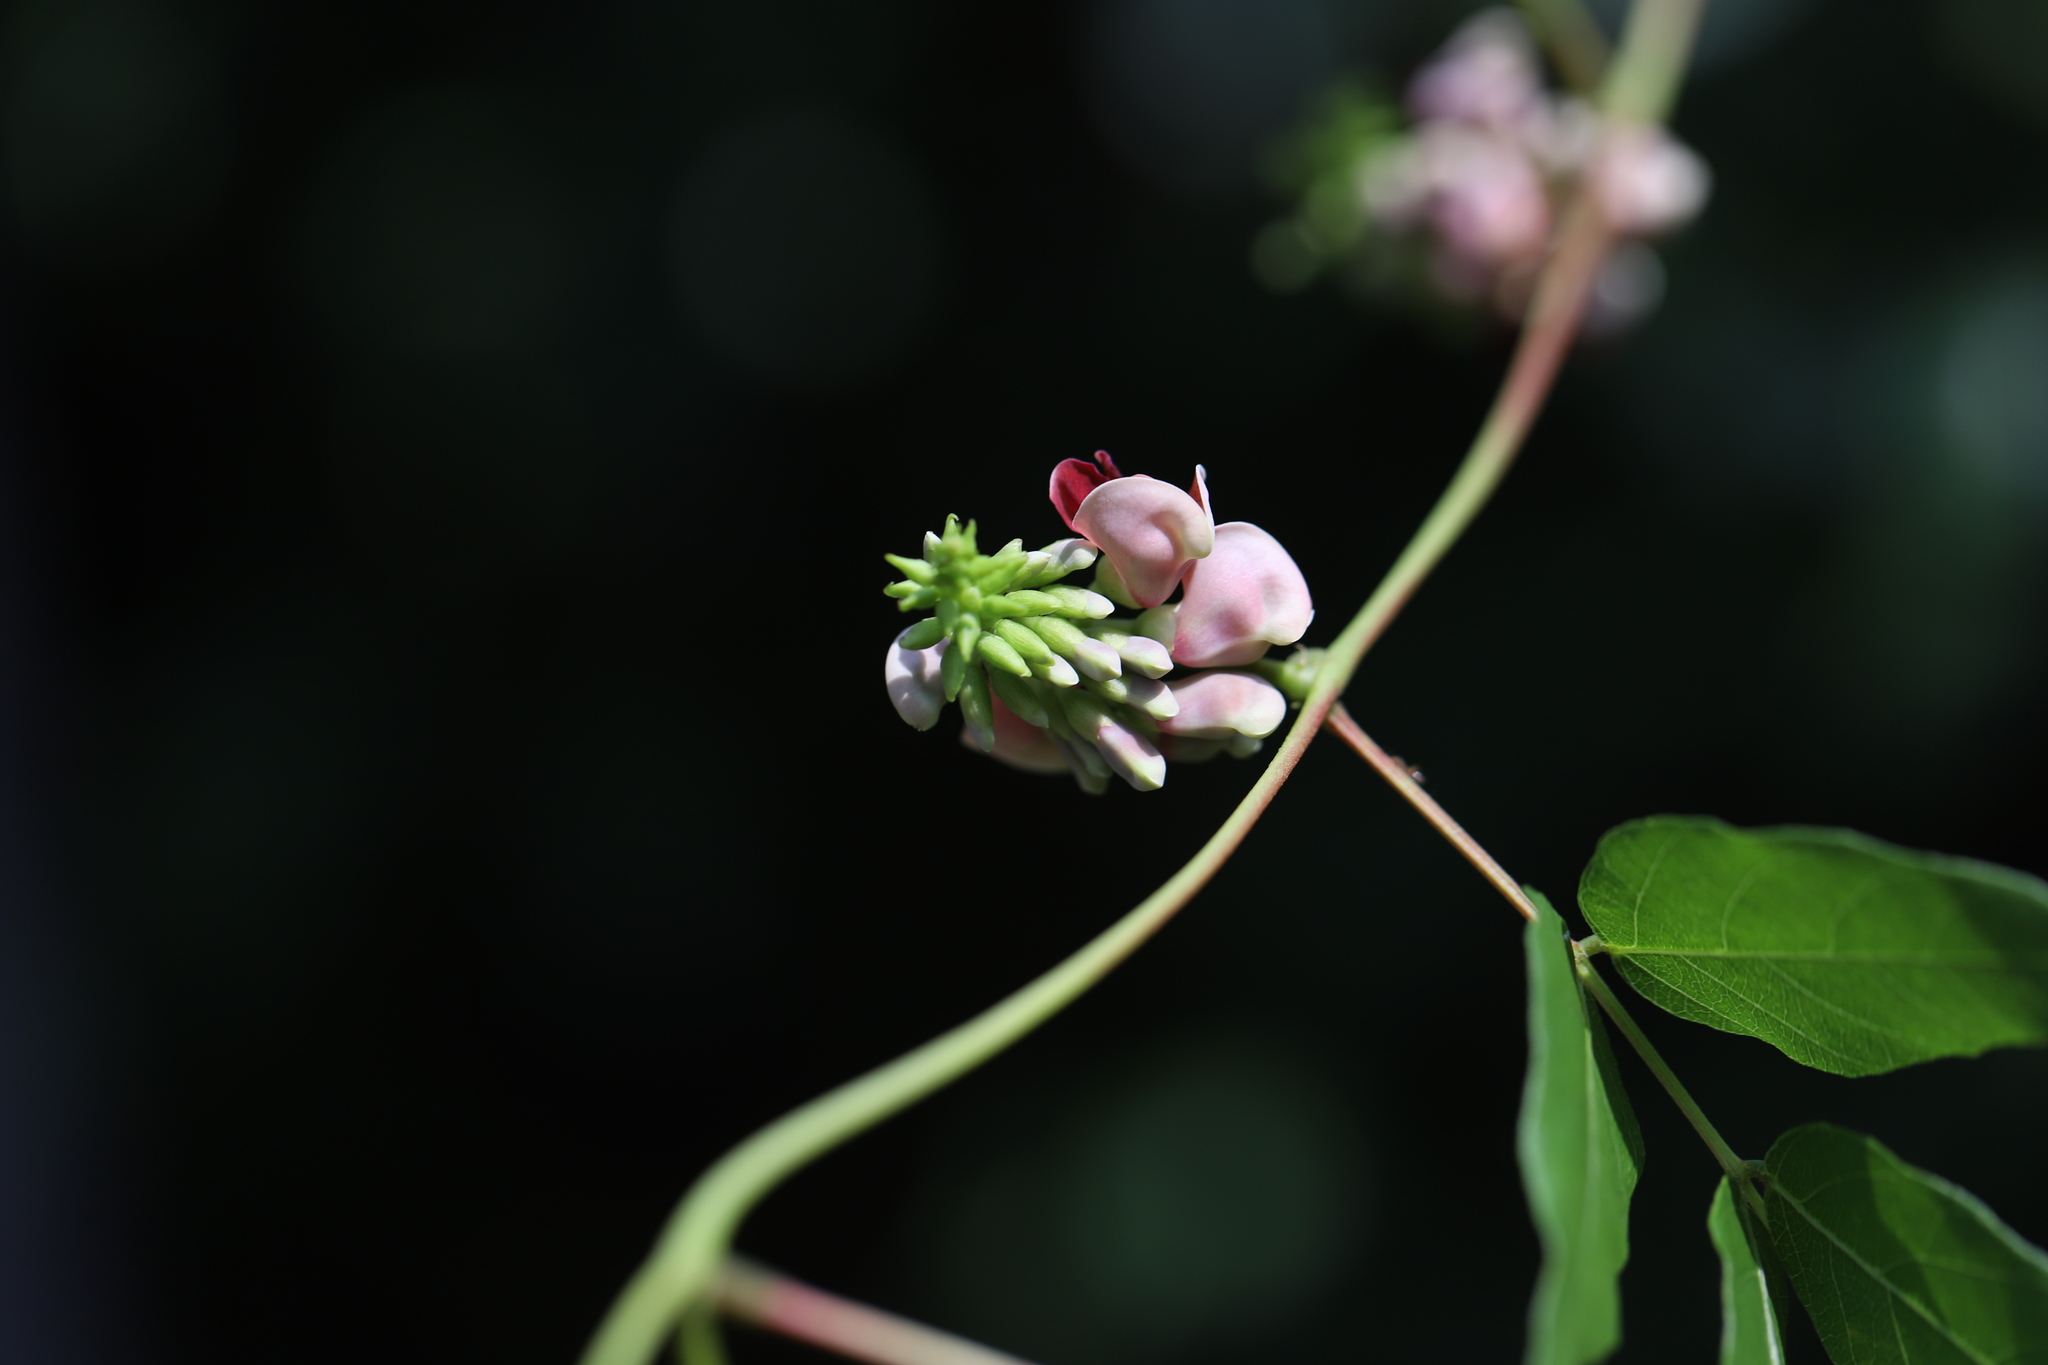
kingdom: Plantae
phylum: Tracheophyta
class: Magnoliopsida
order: Fabales
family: Fabaceae
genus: Apios
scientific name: Apios americana
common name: American potato-bean
